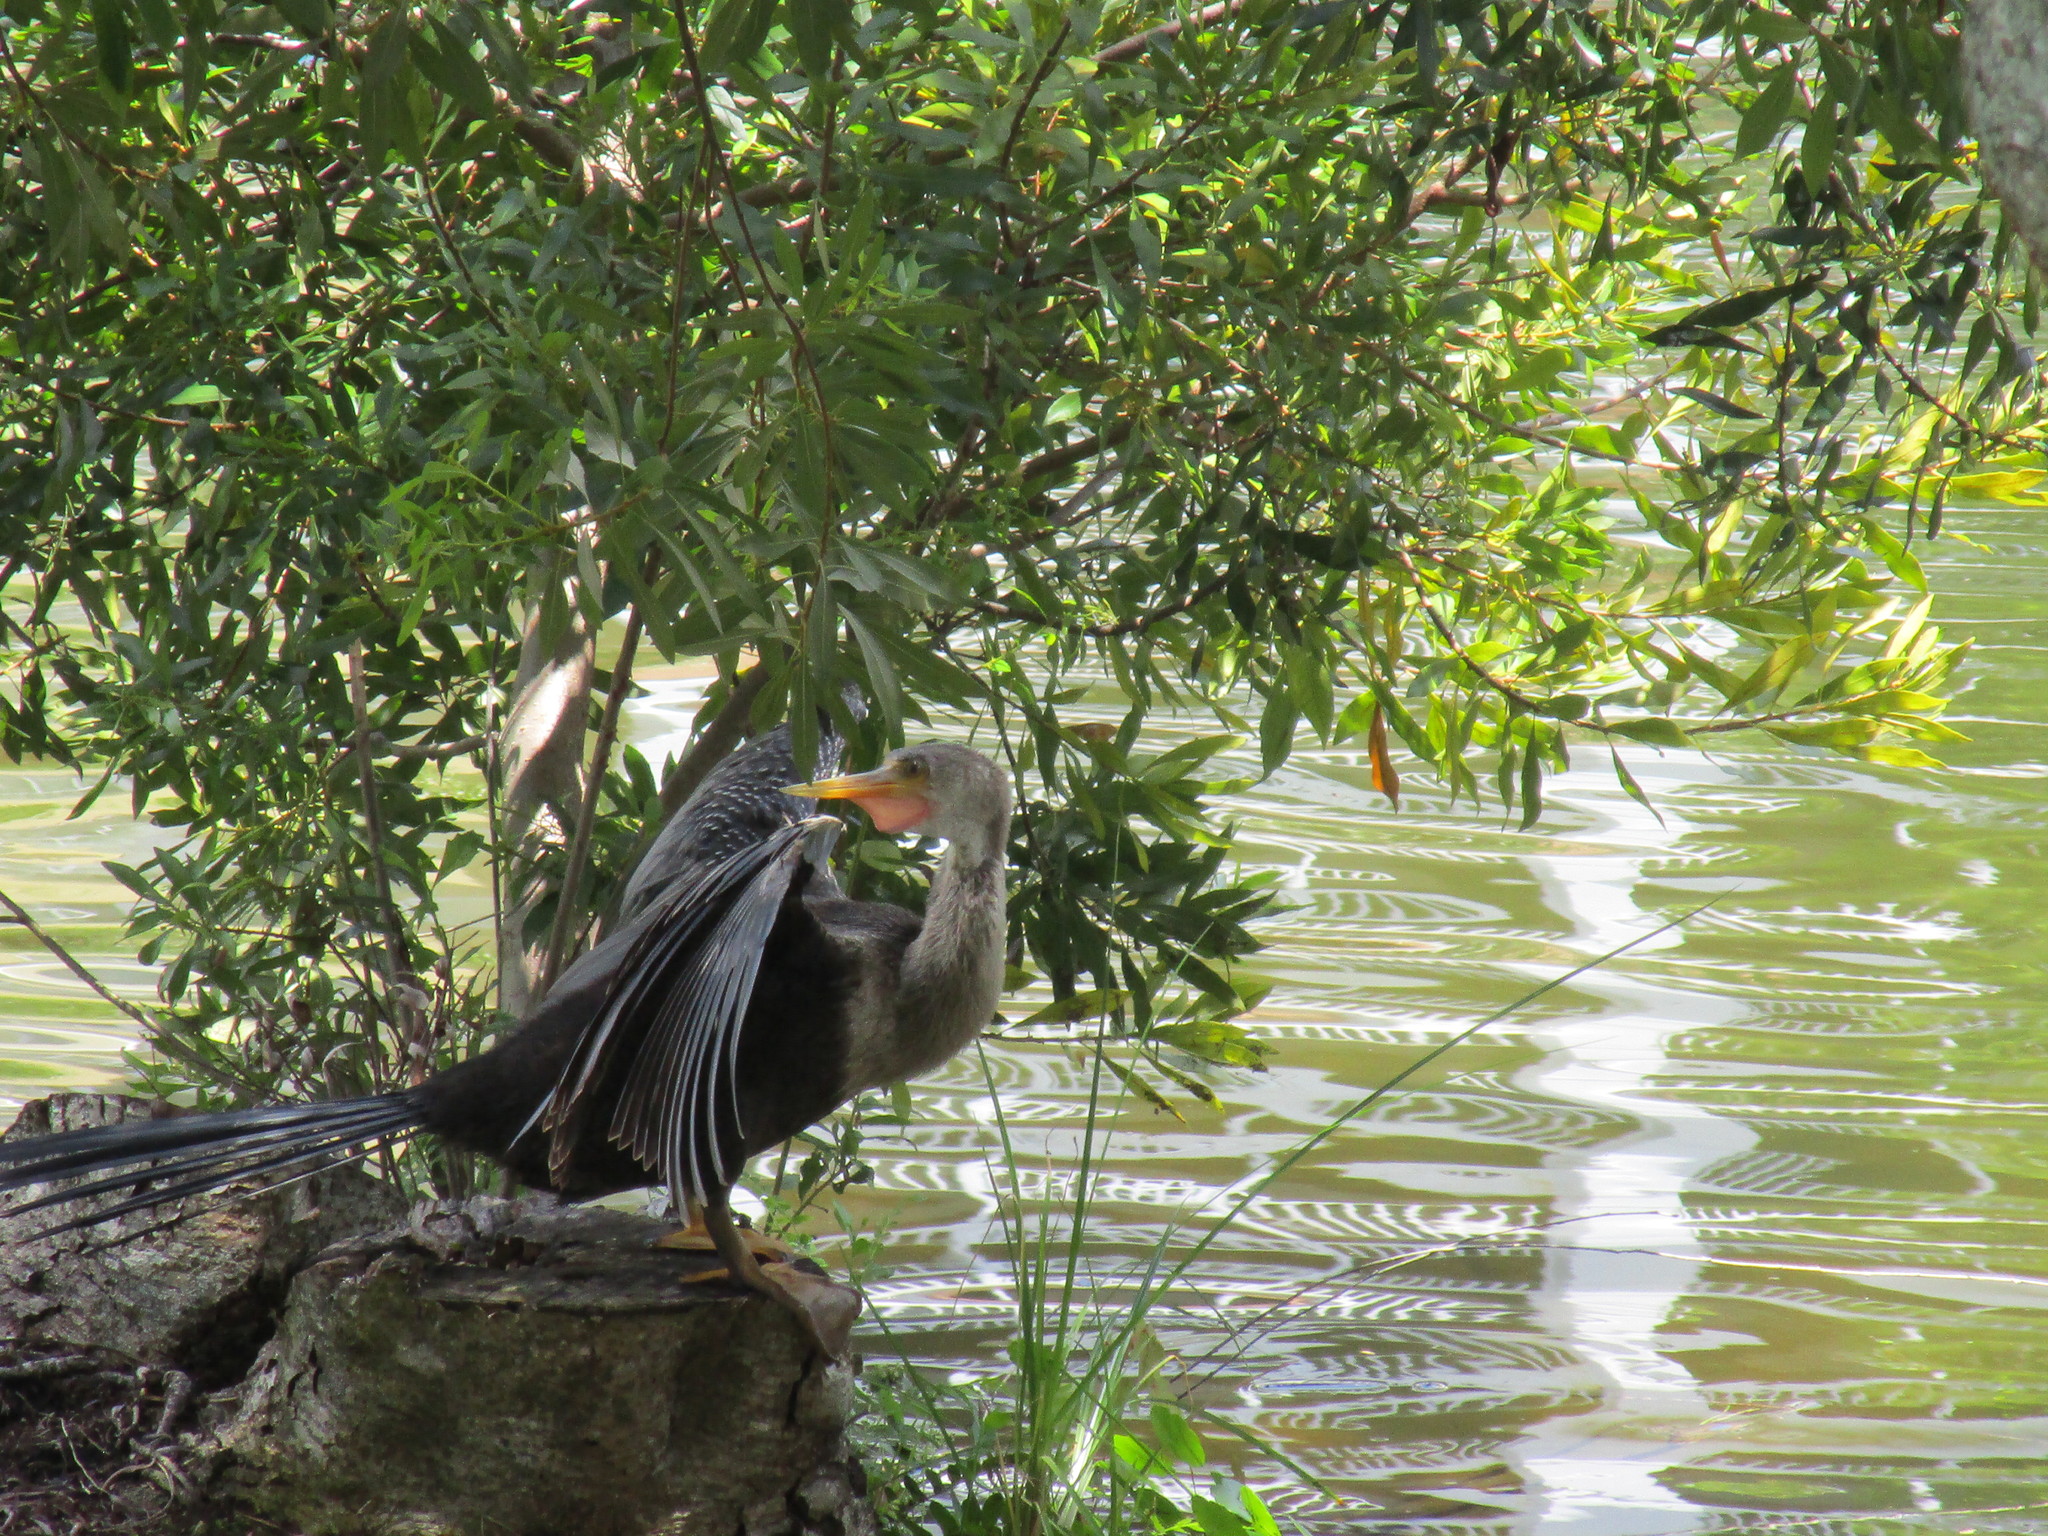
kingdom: Animalia
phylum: Chordata
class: Aves
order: Suliformes
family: Anhingidae
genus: Anhinga
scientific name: Anhinga anhinga
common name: Anhinga
